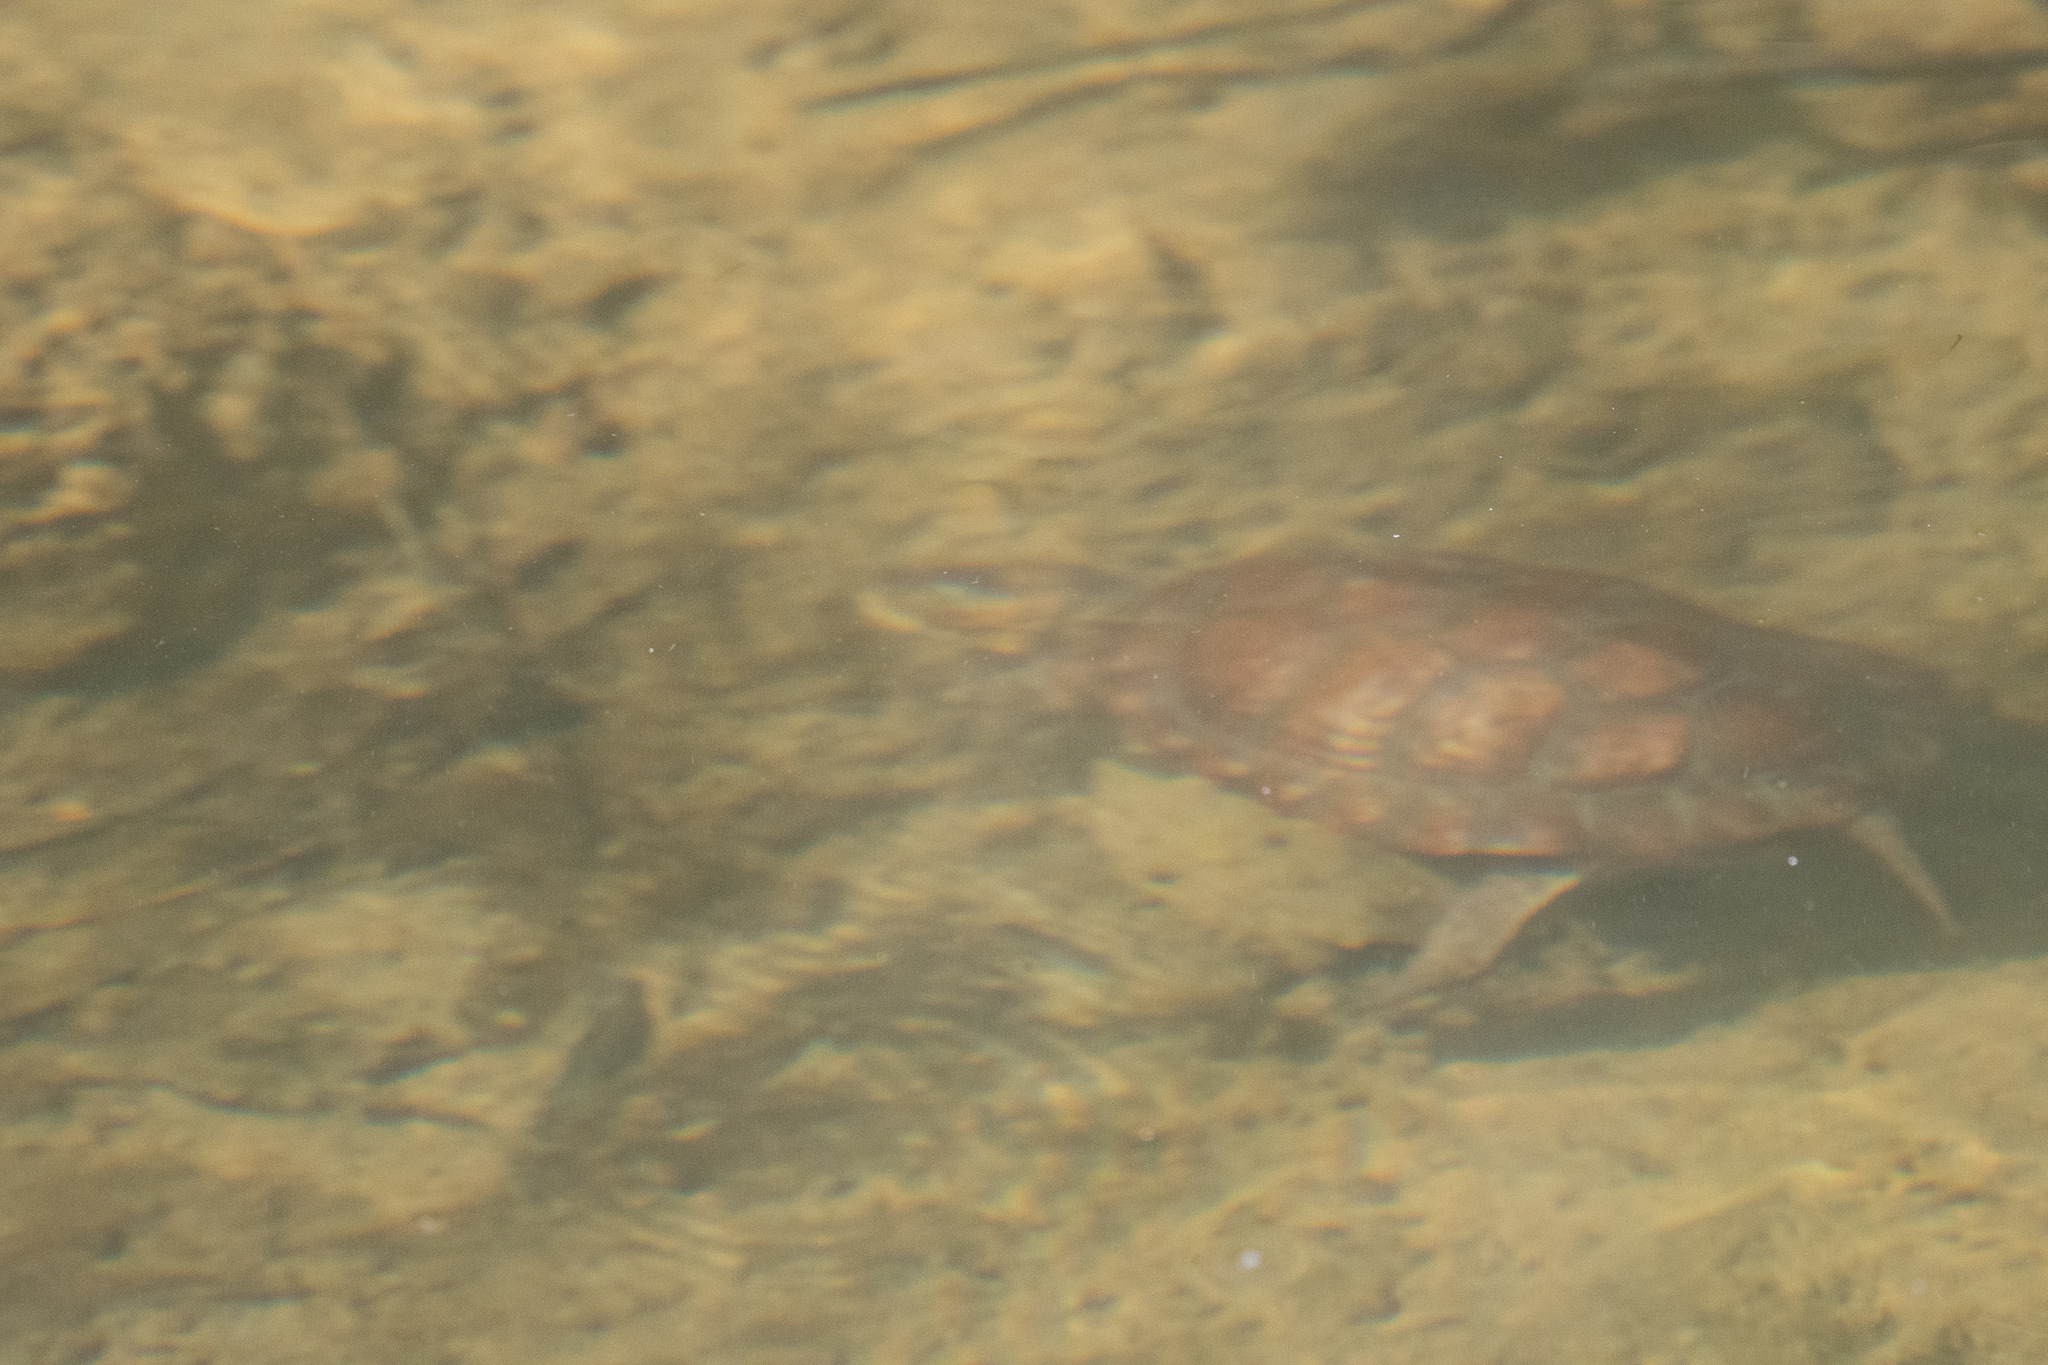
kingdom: Animalia
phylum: Chordata
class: Testudines
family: Emydidae
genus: Actinemys
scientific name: Actinemys marmorata
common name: Western pond turtle
